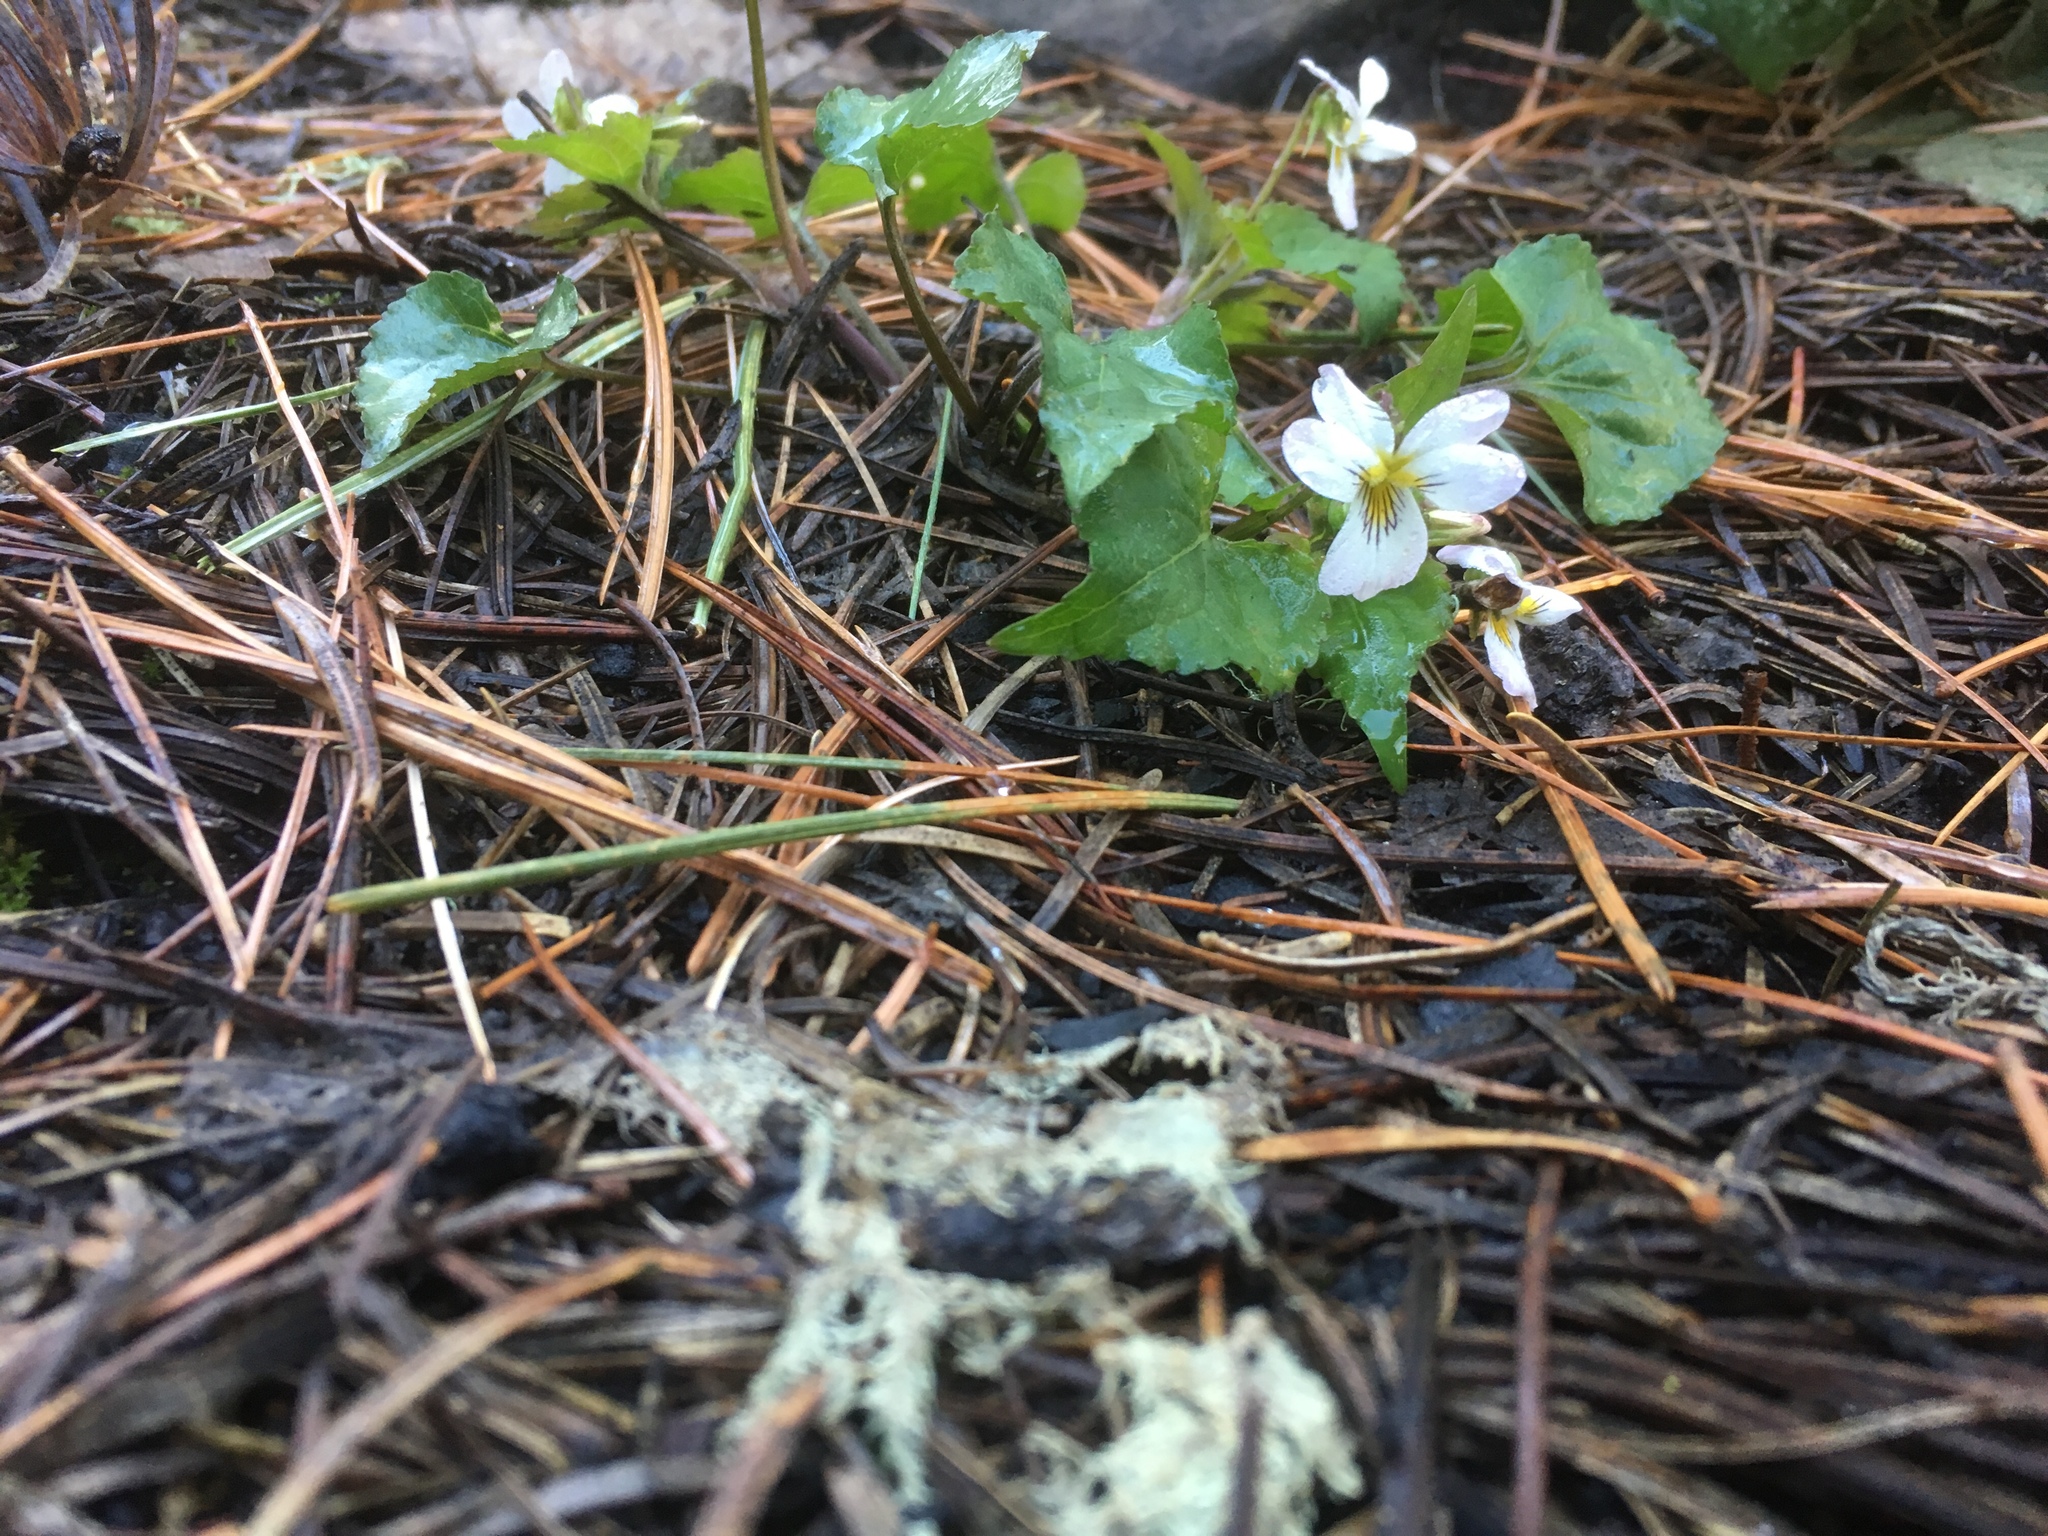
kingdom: Plantae
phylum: Tracheophyta
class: Magnoliopsida
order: Malpighiales
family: Violaceae
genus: Viola
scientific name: Viola canadensis
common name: Canada violet
